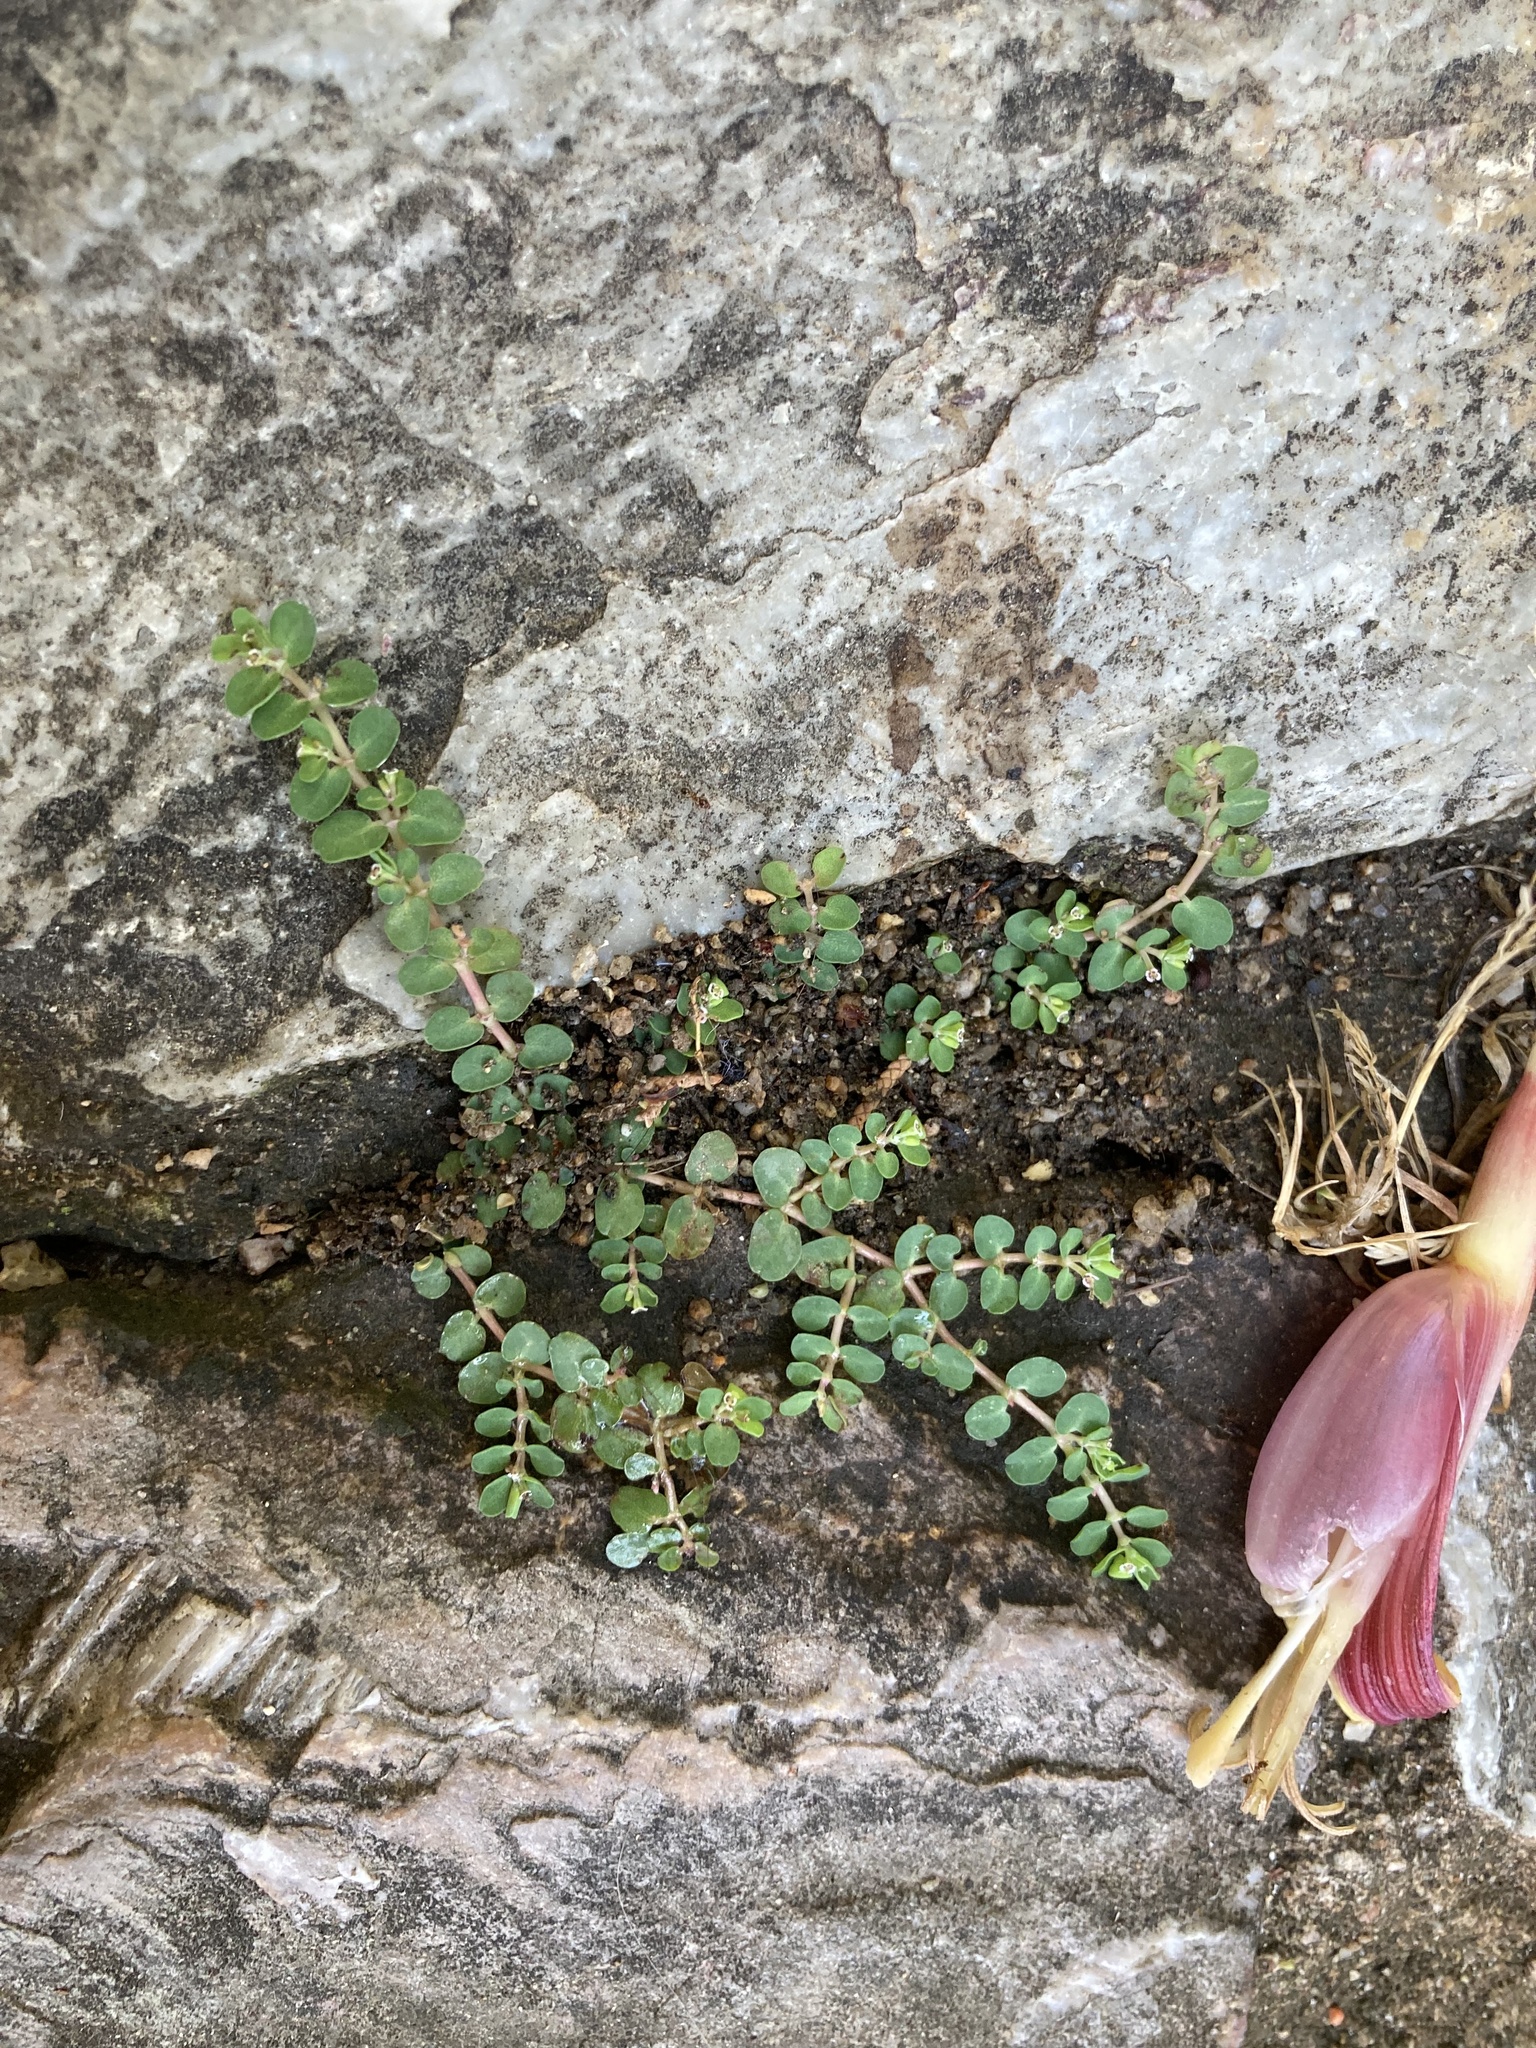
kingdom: Plantae
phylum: Tracheophyta
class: Magnoliopsida
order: Malpighiales
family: Euphorbiaceae
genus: Euphorbia
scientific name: Euphorbia serpens
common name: Matted sandmat
